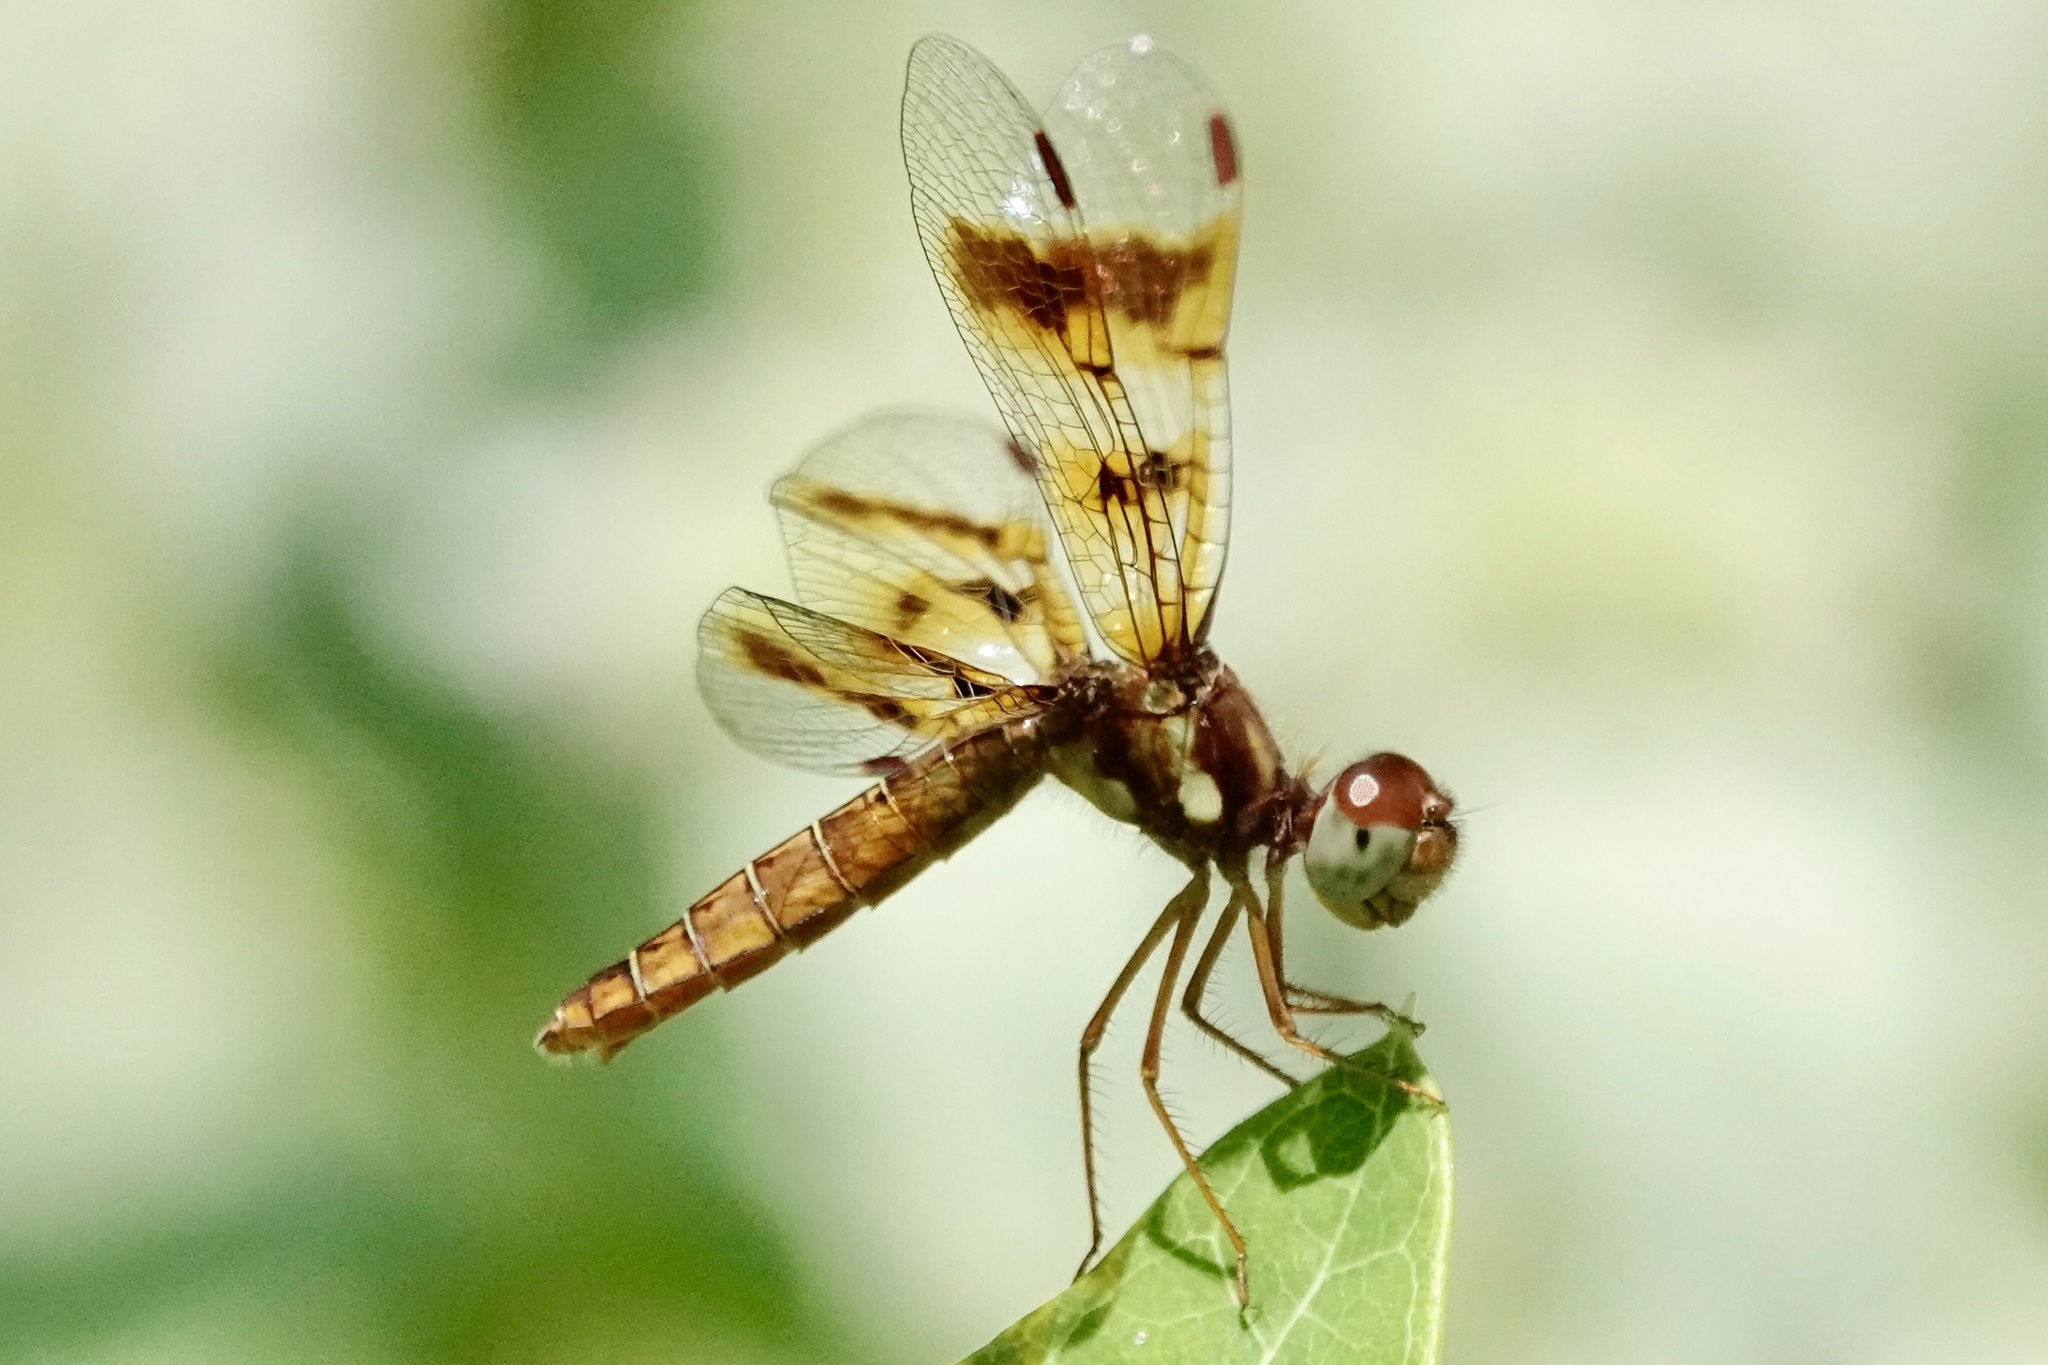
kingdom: Animalia
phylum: Arthropoda
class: Insecta
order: Odonata
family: Libellulidae
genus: Perithemis
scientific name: Perithemis tenera
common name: Eastern amberwing
